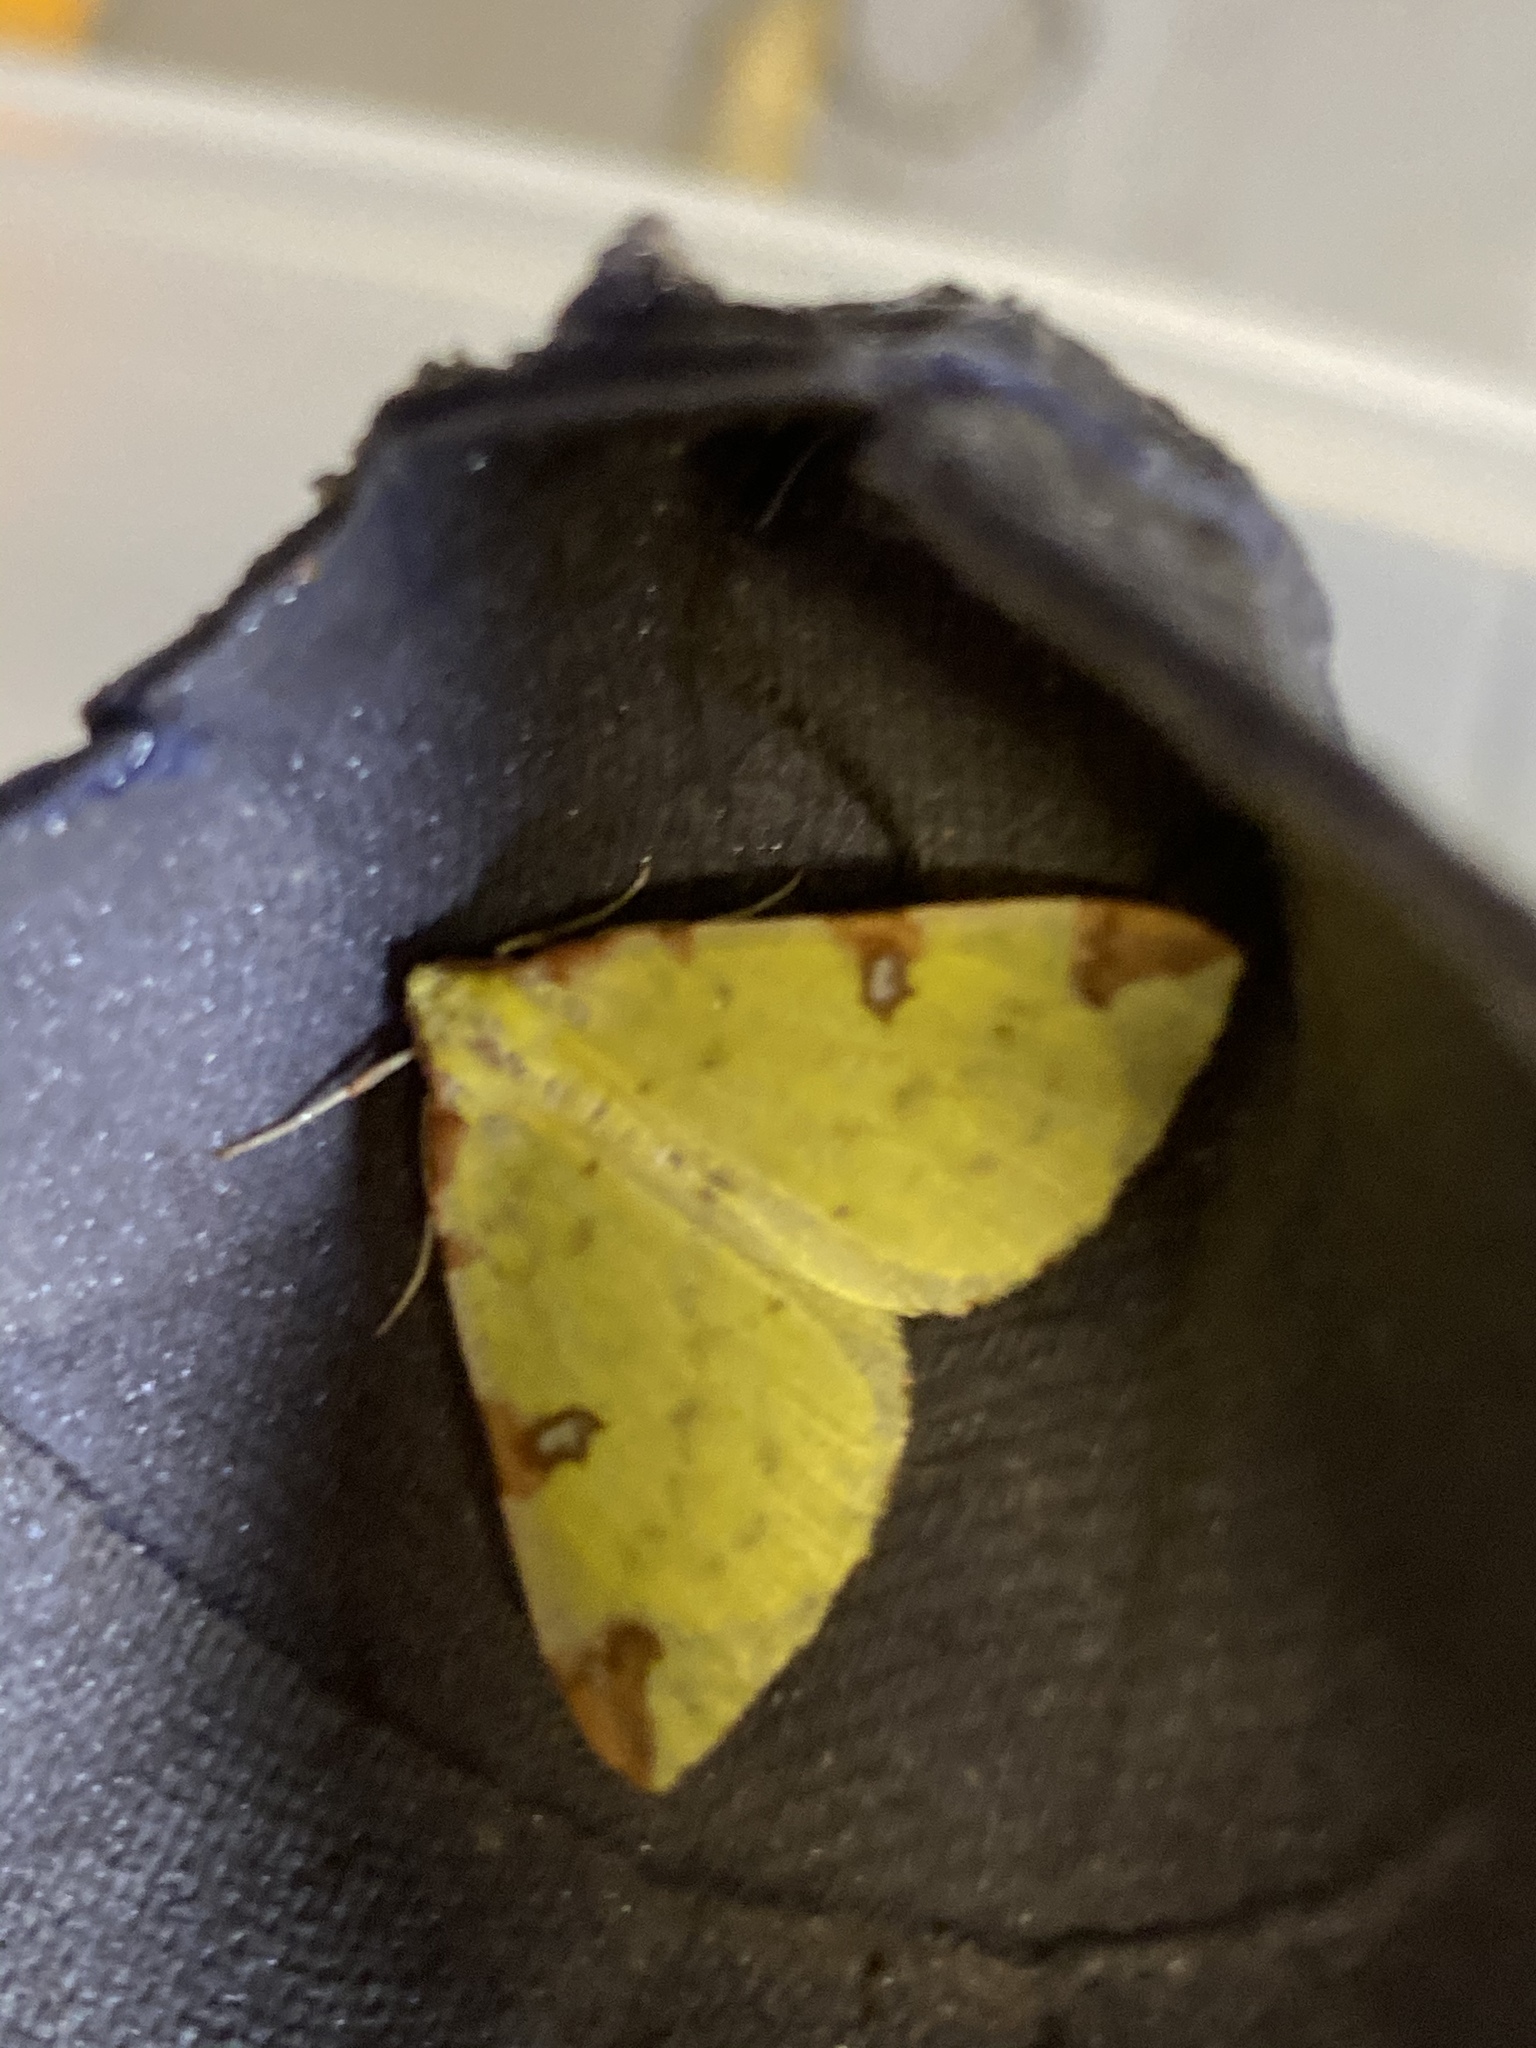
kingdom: Animalia
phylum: Arthropoda
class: Insecta
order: Lepidoptera
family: Geometridae
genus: Opisthograptis
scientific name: Opisthograptis luteolata
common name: Brimstone moth
